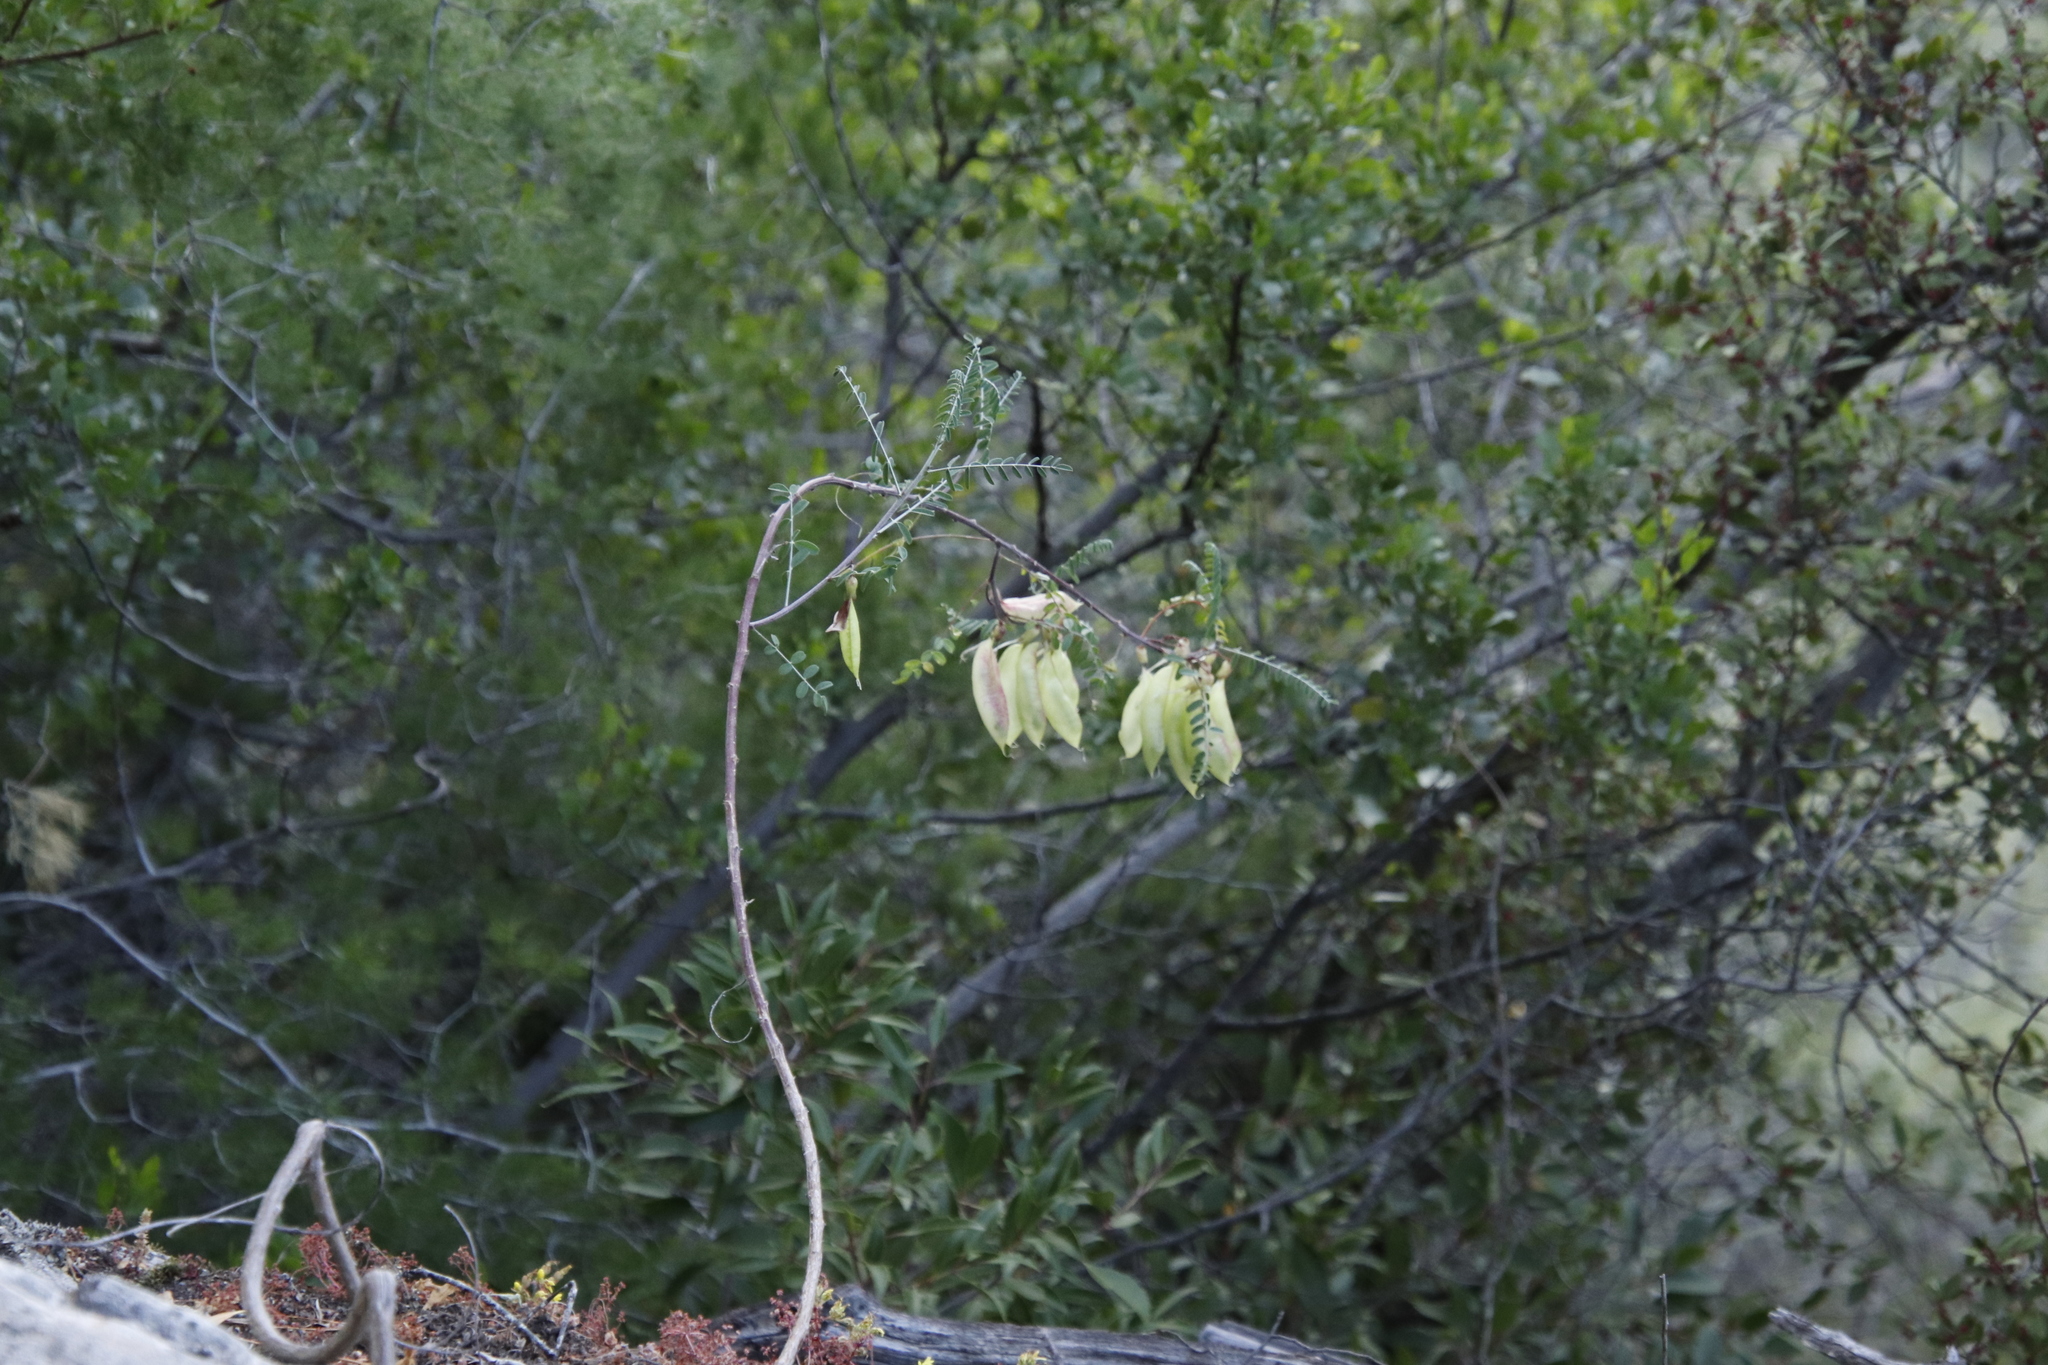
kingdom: Plantae
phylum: Tracheophyta
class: Magnoliopsida
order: Fabales
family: Fabaceae
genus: Lessertia
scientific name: Lessertia frutescens
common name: Balloon-pea
